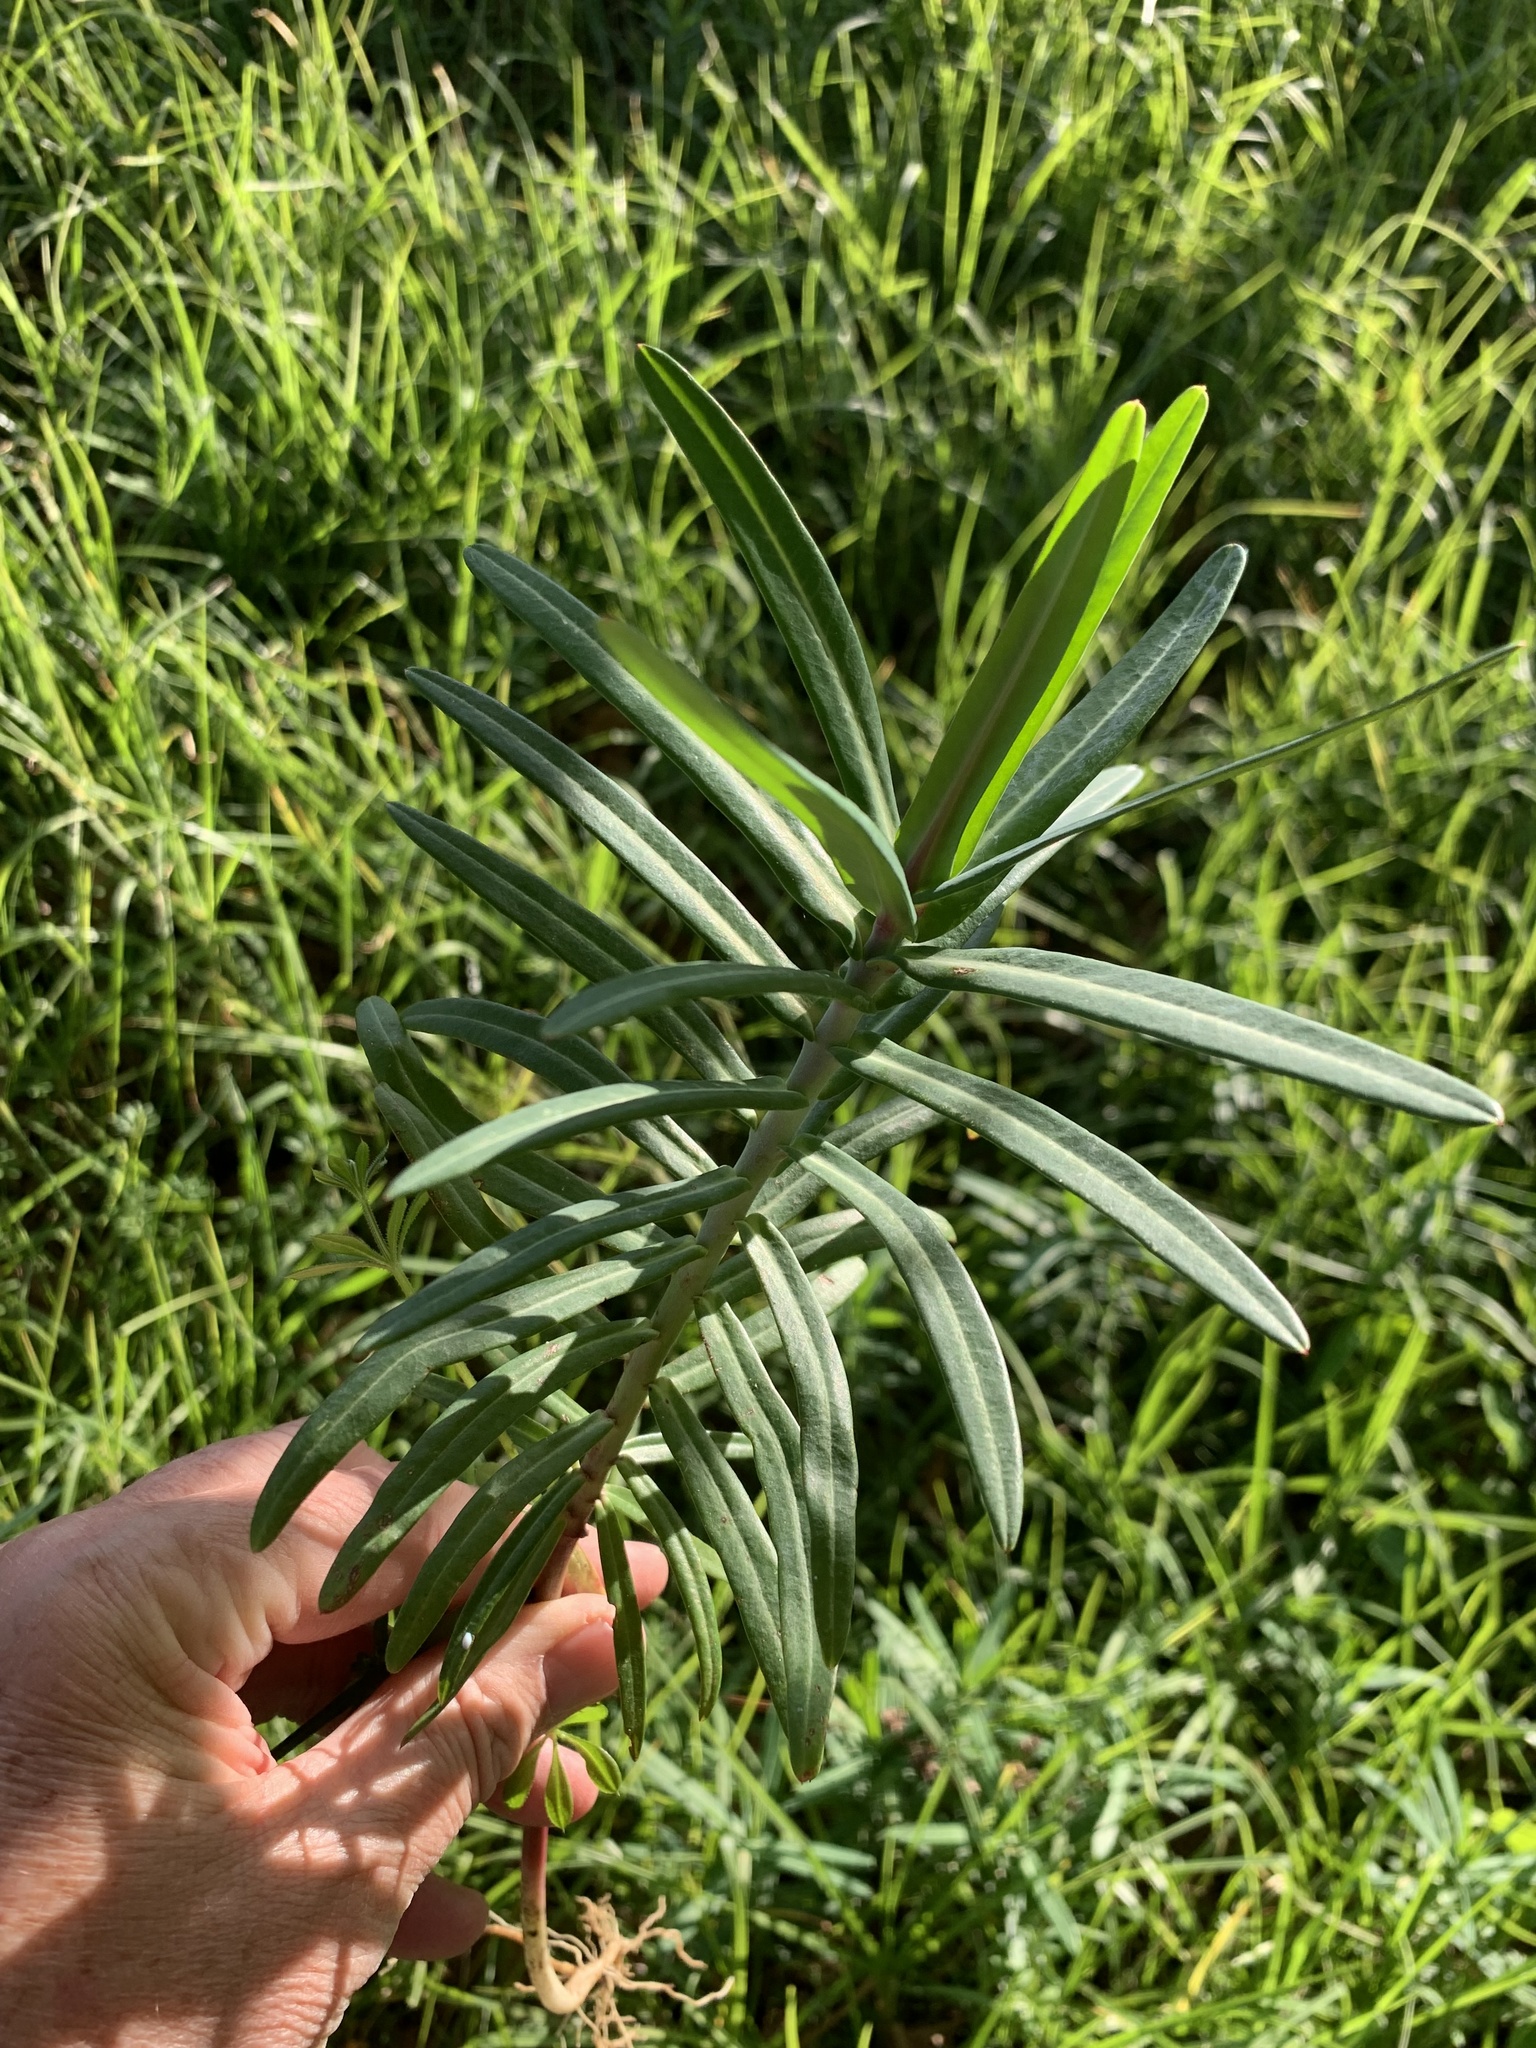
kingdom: Plantae
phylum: Tracheophyta
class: Magnoliopsida
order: Malpighiales
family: Euphorbiaceae
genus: Euphorbia
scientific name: Euphorbia lathyris
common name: Caper spurge
